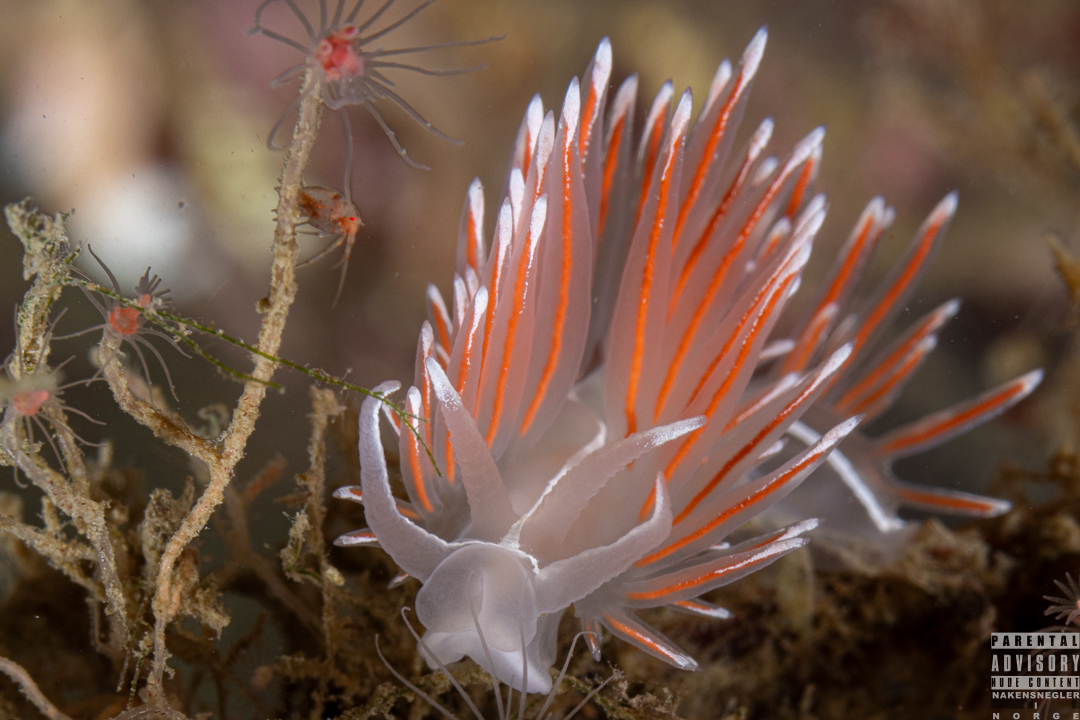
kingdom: Animalia
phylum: Mollusca
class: Gastropoda
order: Nudibranchia
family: Coryphellidae
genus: Coryphella
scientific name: Coryphella lineata
